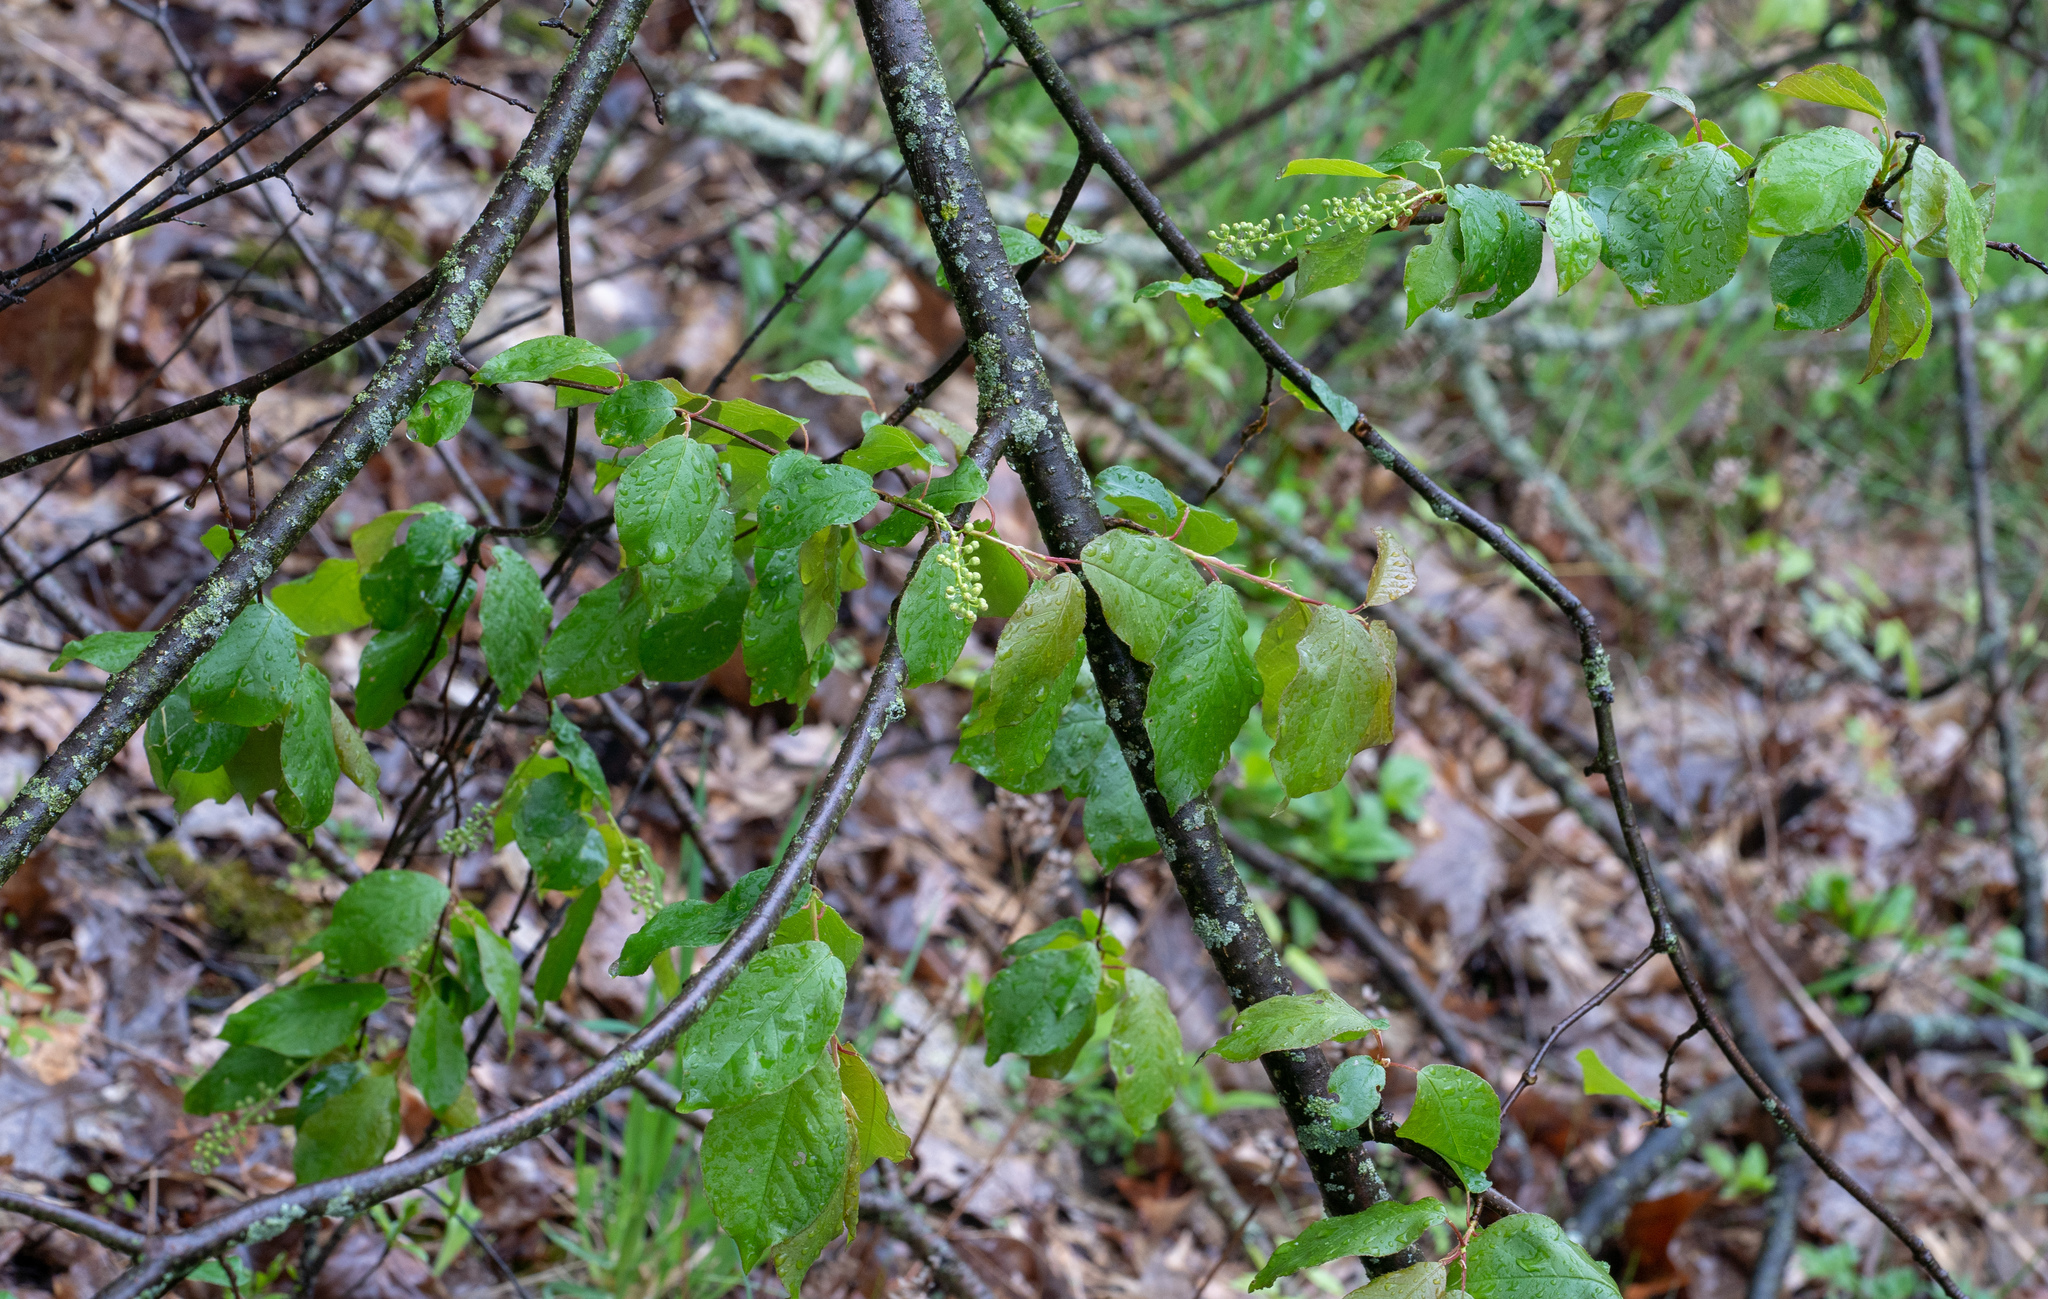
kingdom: Plantae
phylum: Tracheophyta
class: Magnoliopsida
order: Rosales
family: Rosaceae
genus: Prunus
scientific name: Prunus virginiana
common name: Chokecherry
